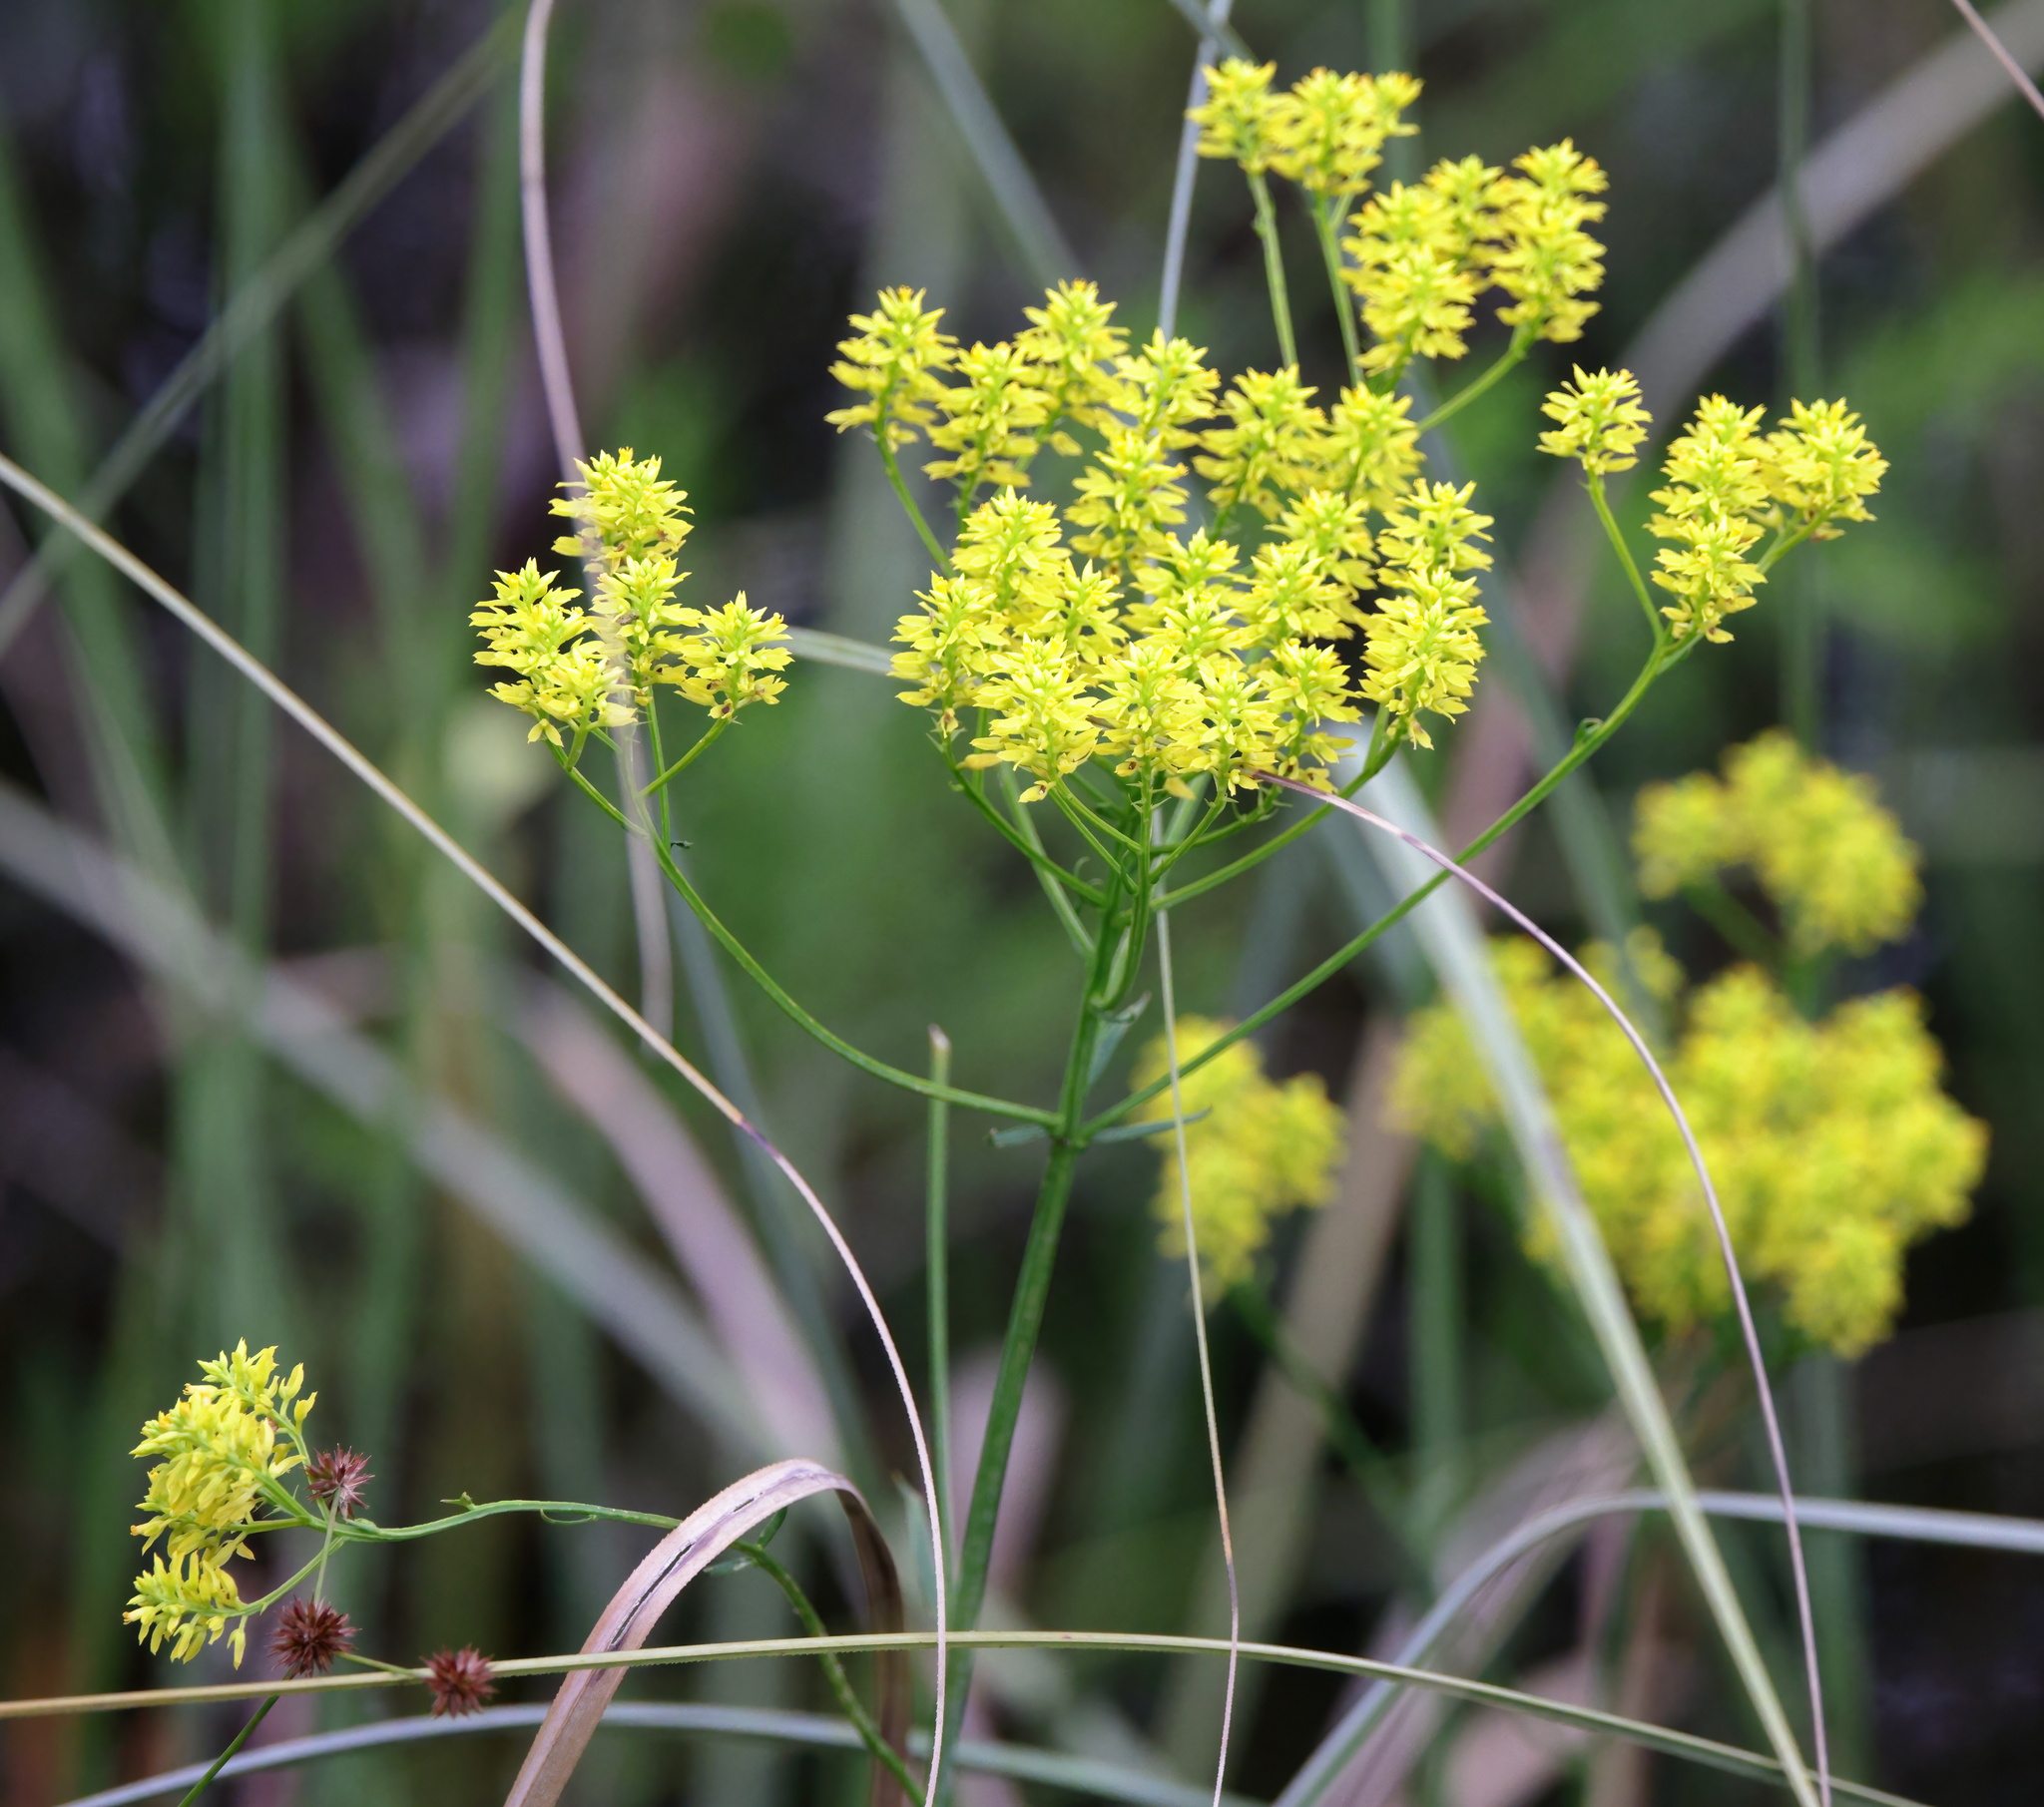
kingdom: Plantae
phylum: Tracheophyta
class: Magnoliopsida
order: Fabales
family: Polygalaceae
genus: Polygala
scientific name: Polygala cymosa
